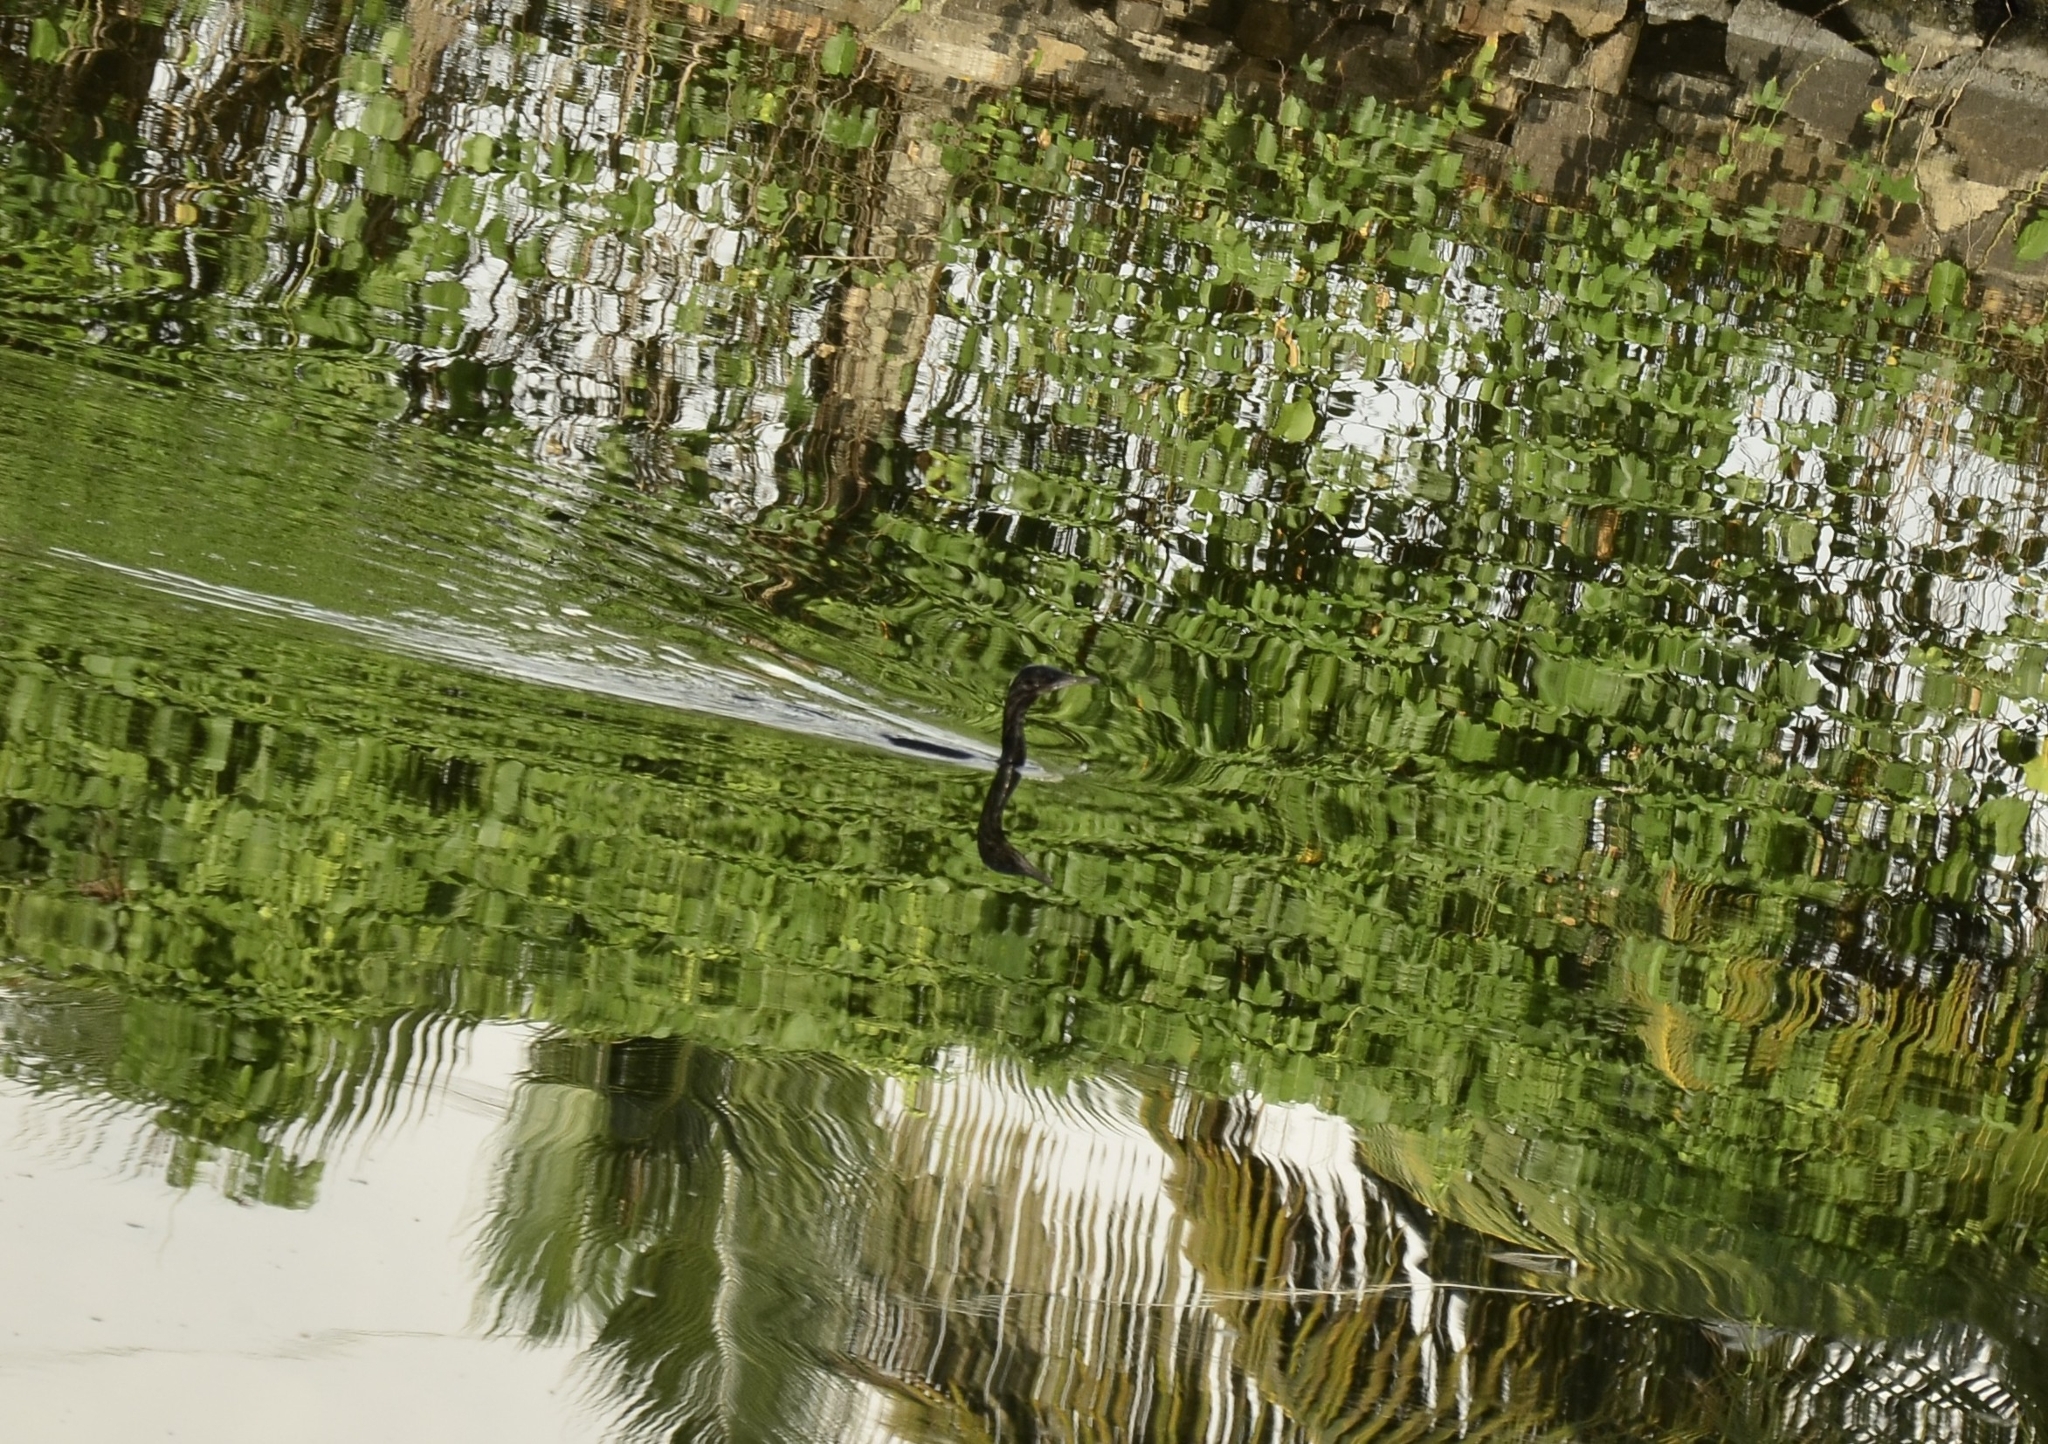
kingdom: Animalia
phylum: Chordata
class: Aves
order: Suliformes
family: Phalacrocoracidae
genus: Microcarbo
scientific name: Microcarbo niger
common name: Little cormorant
